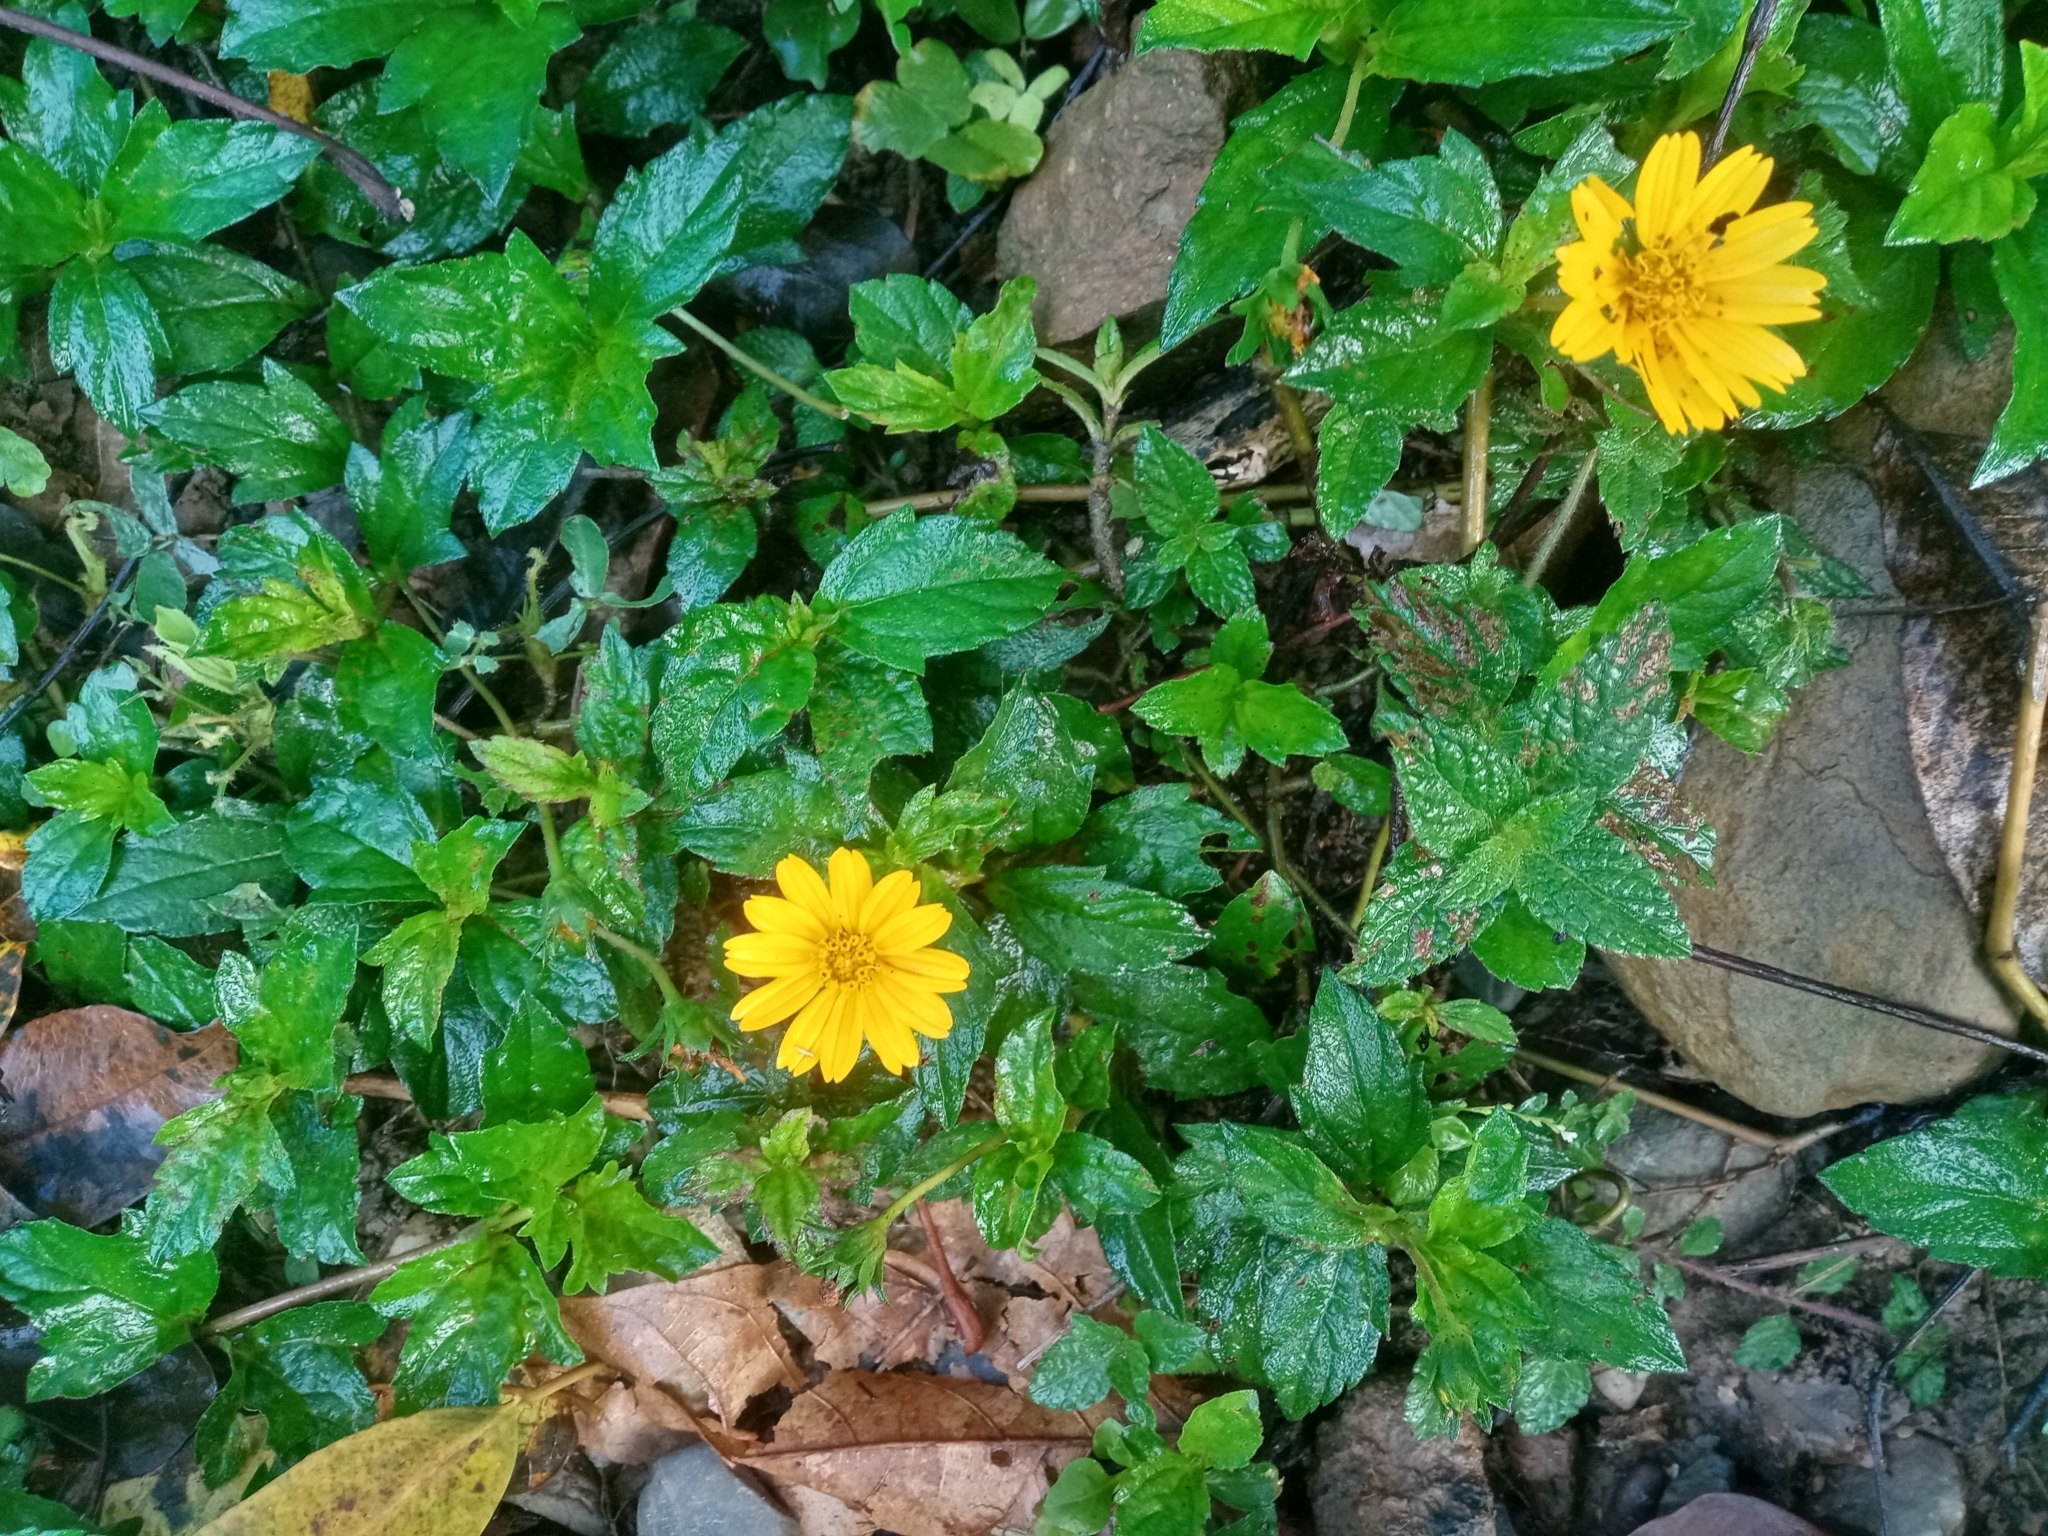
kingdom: Plantae
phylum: Tracheophyta
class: Magnoliopsida
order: Asterales
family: Asteraceae
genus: Sphagneticola
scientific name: Sphagneticola trilobata
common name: Bay biscayne creeping-oxeye
